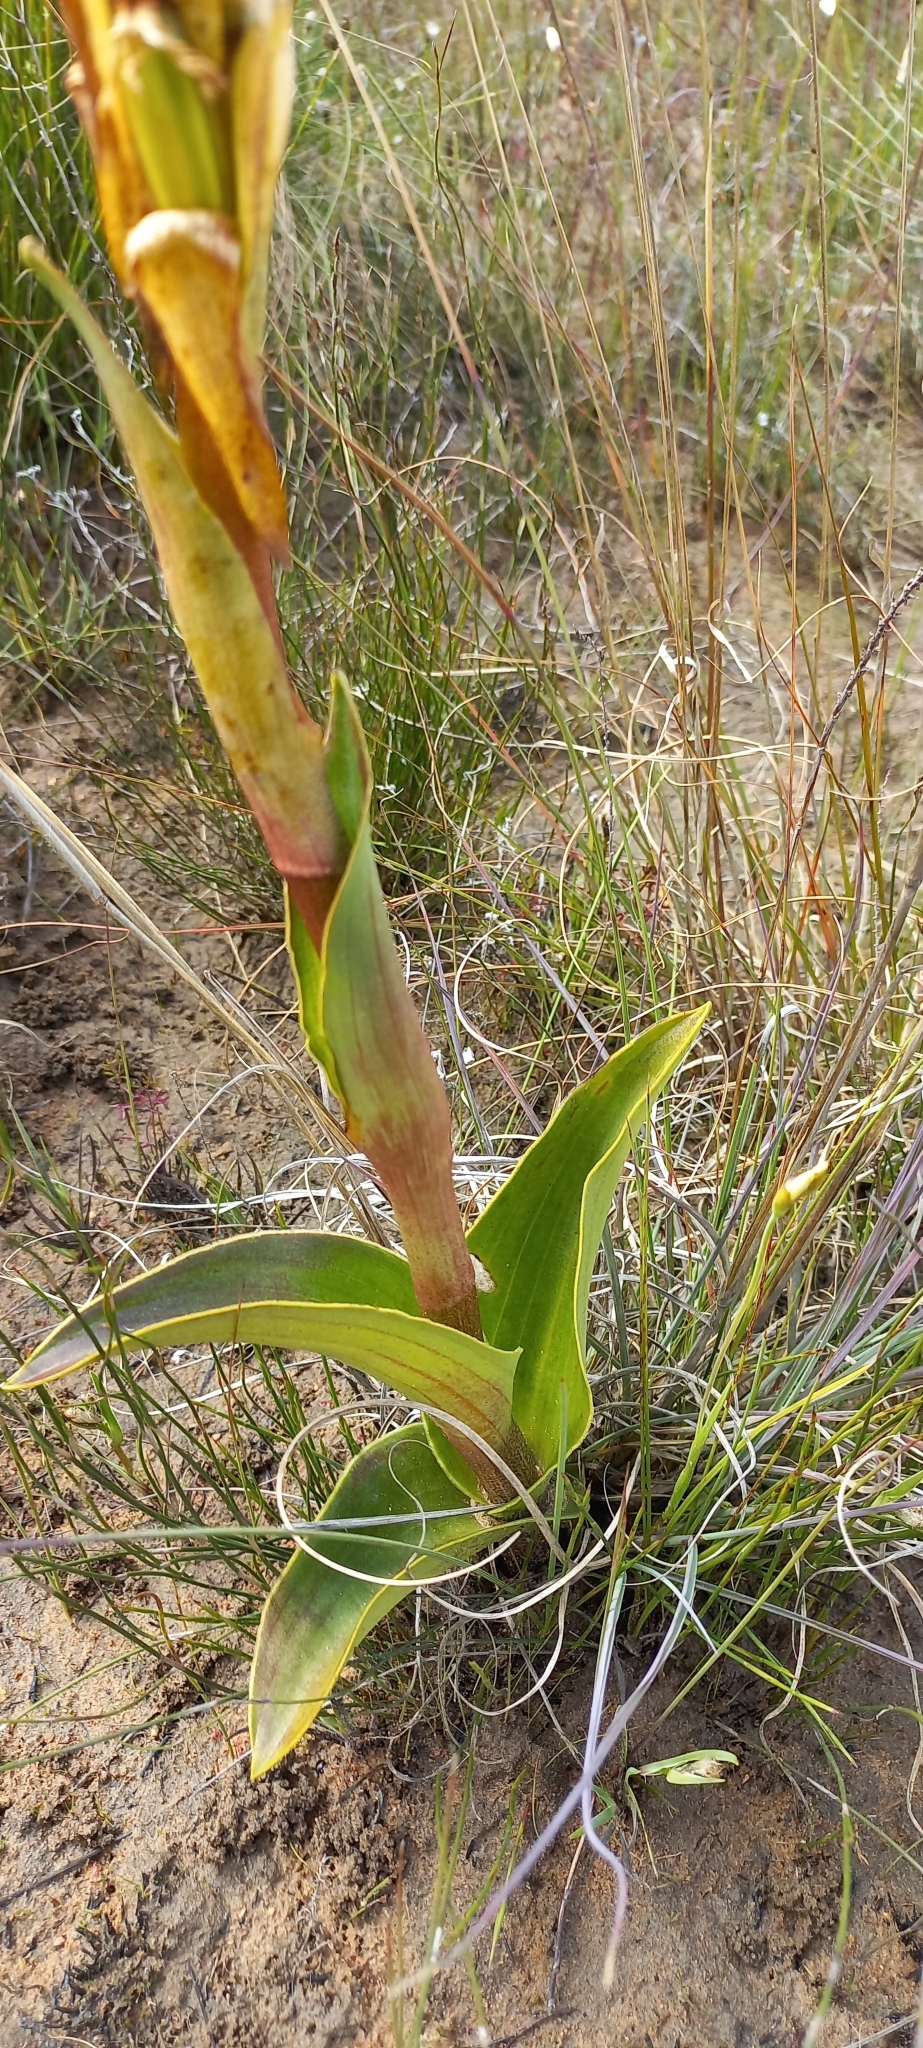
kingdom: Plantae
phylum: Tracheophyta
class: Liliopsida
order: Asparagales
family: Orchidaceae
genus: Satyrium
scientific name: Satyrium coriifolium
